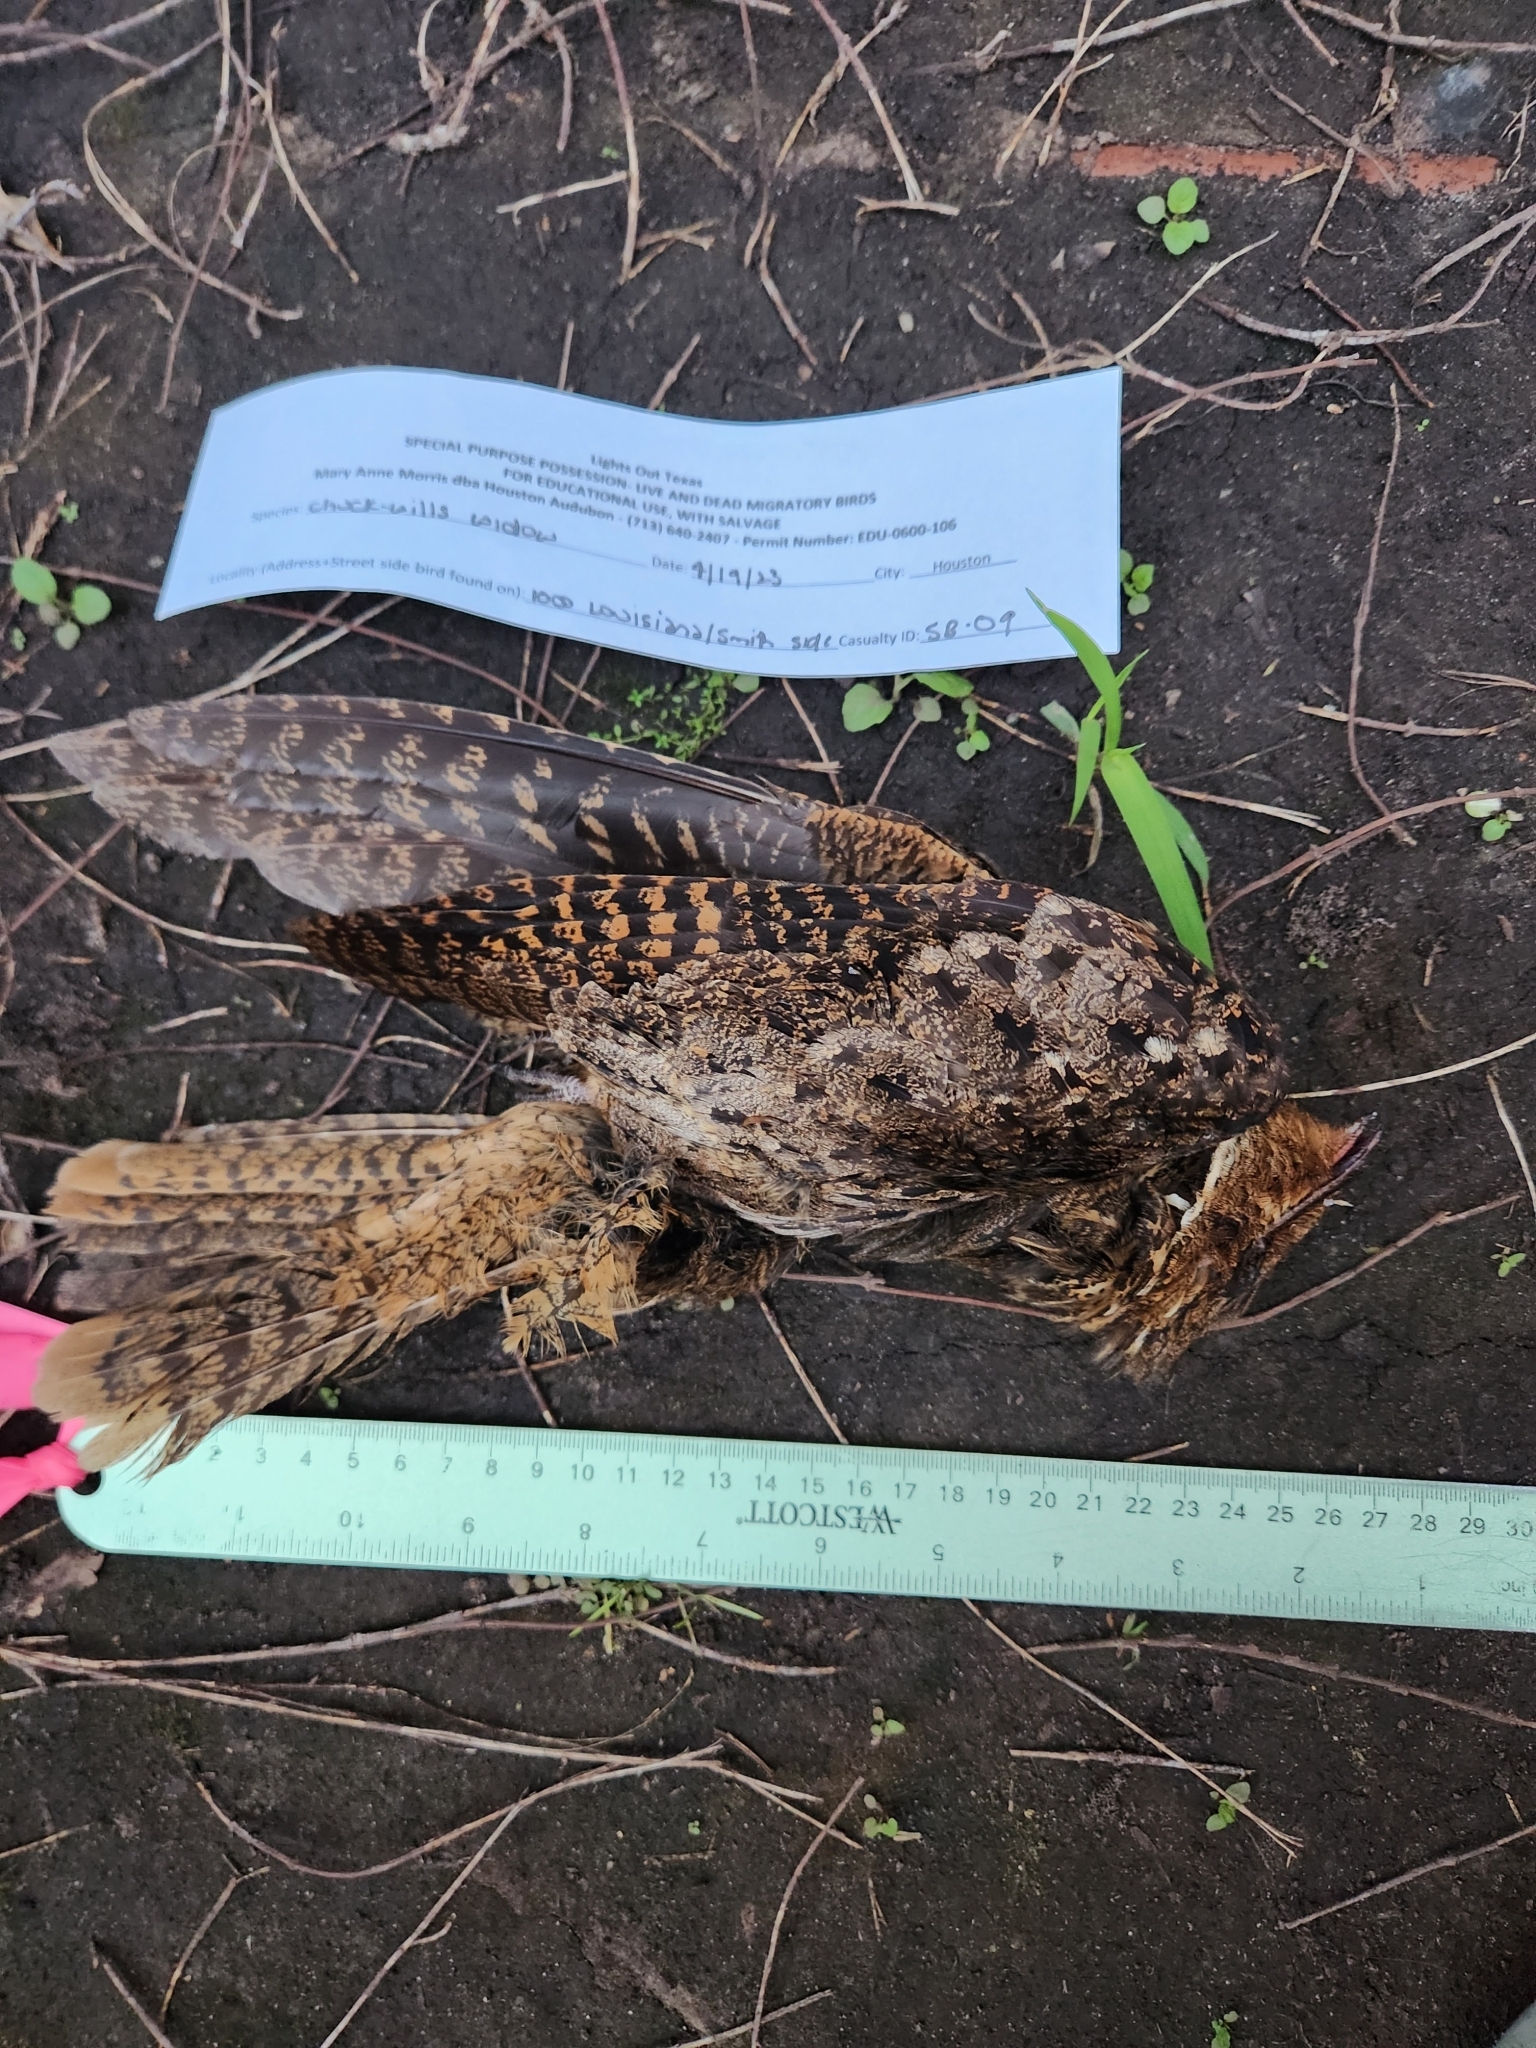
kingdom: Animalia
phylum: Chordata
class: Aves
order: Caprimulgiformes
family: Caprimulgidae
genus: Antrostomus
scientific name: Antrostomus carolinensis
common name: Chuck-will's-widow
